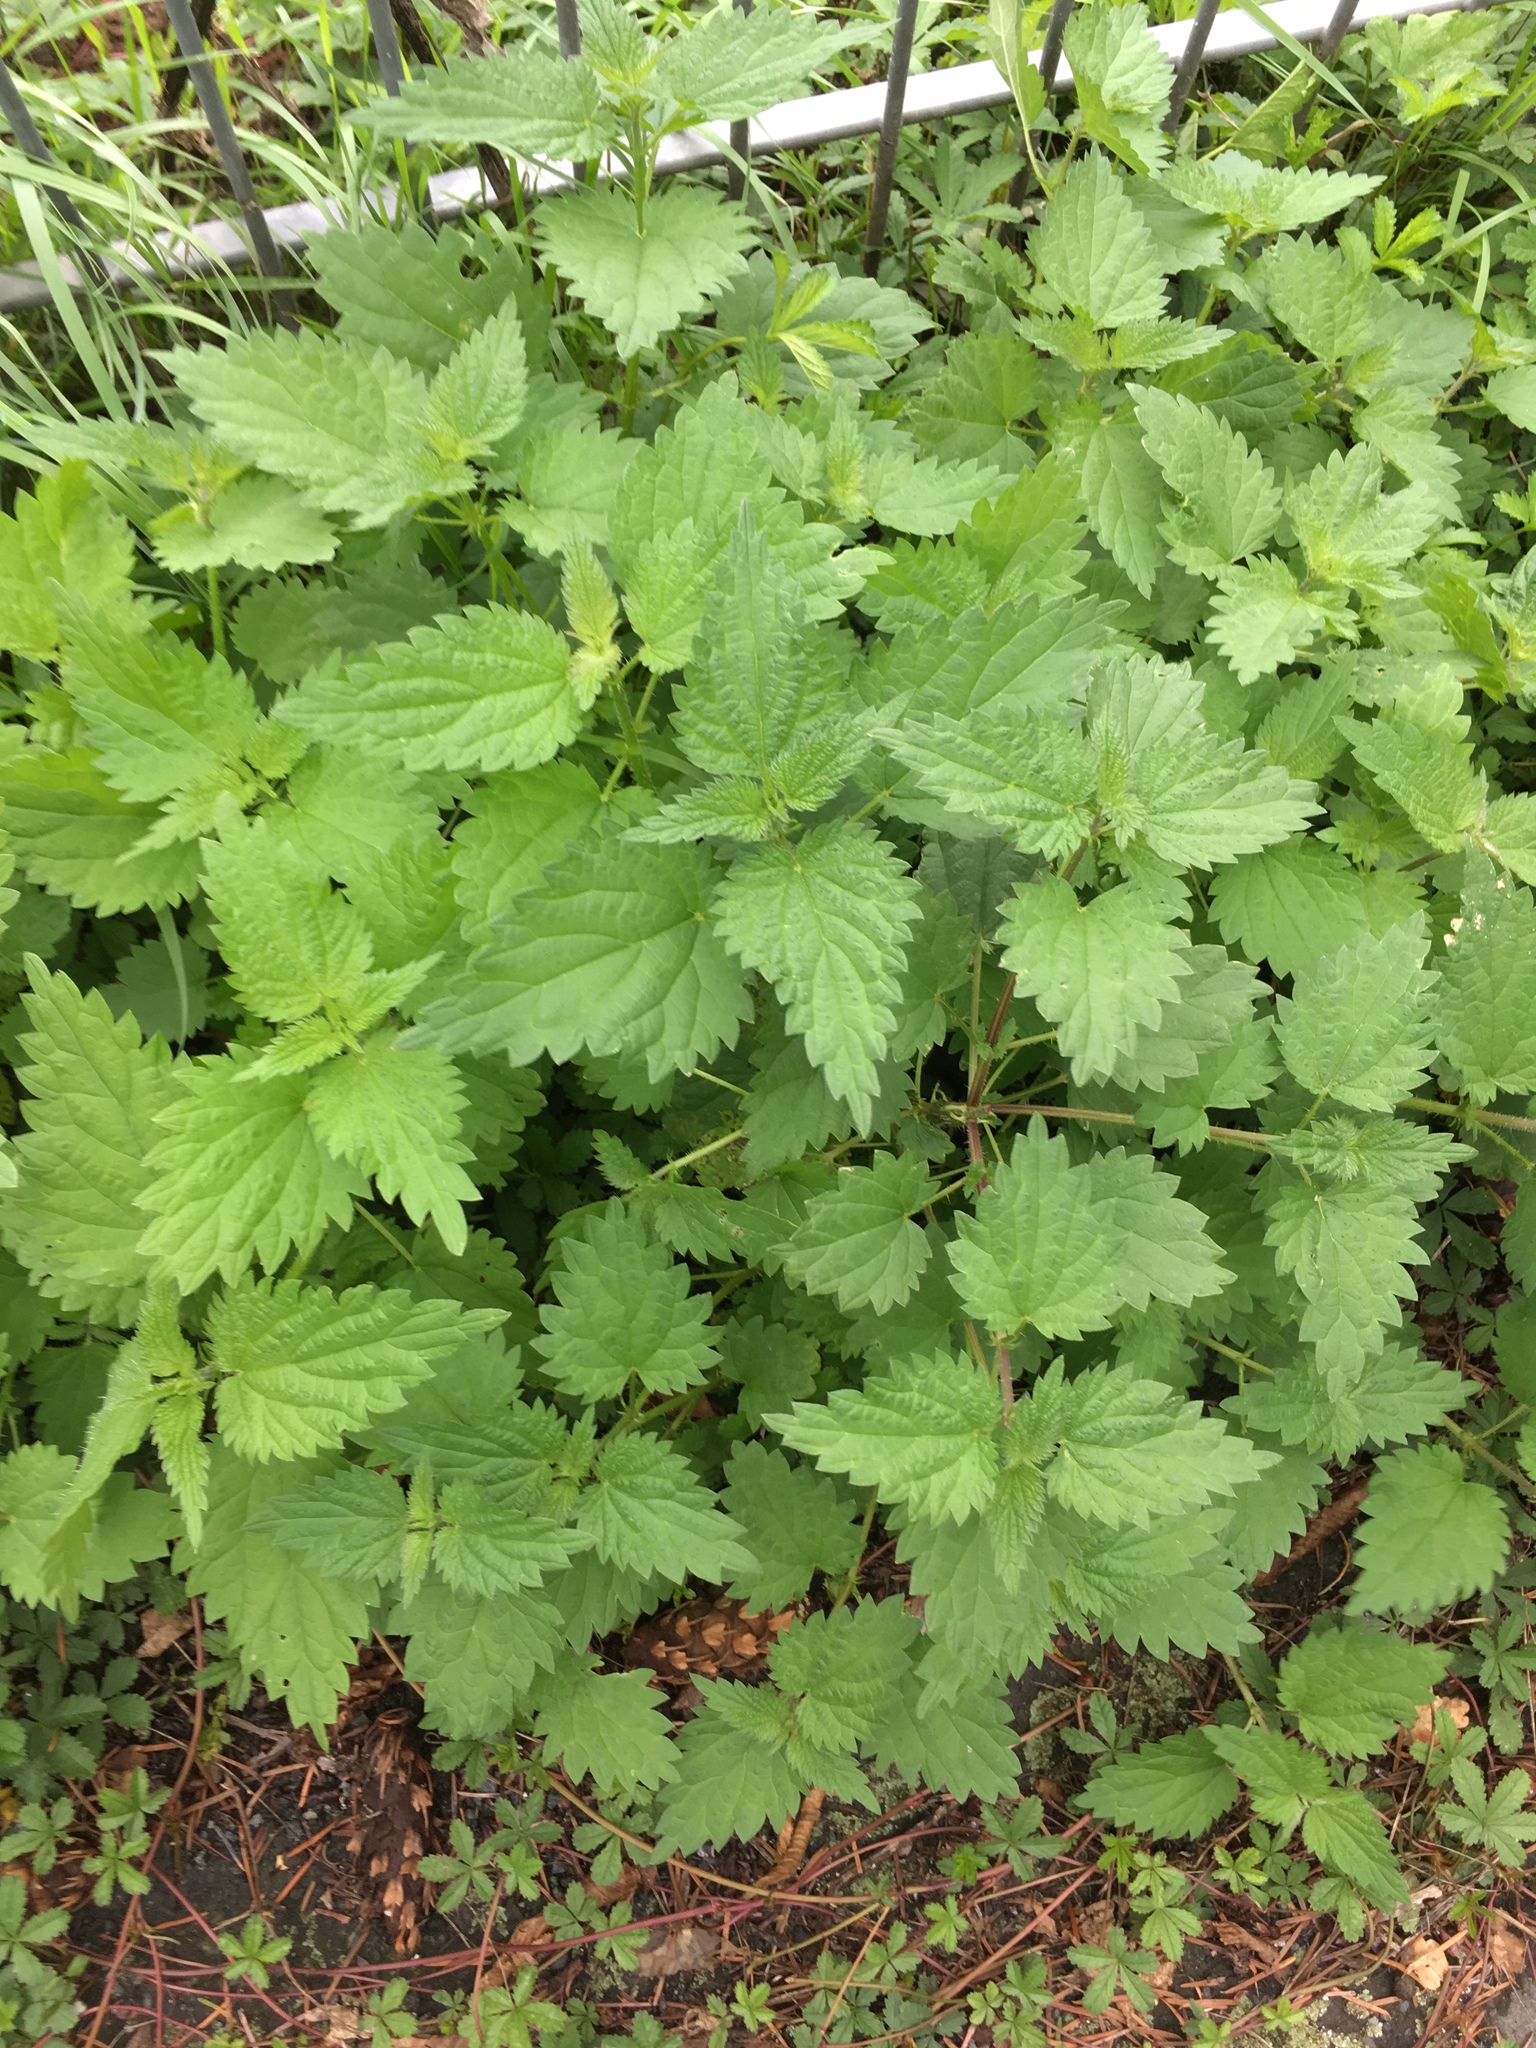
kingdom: Plantae
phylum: Tracheophyta
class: Magnoliopsida
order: Rosales
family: Urticaceae
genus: Urtica
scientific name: Urtica dioica
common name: Common nettle
